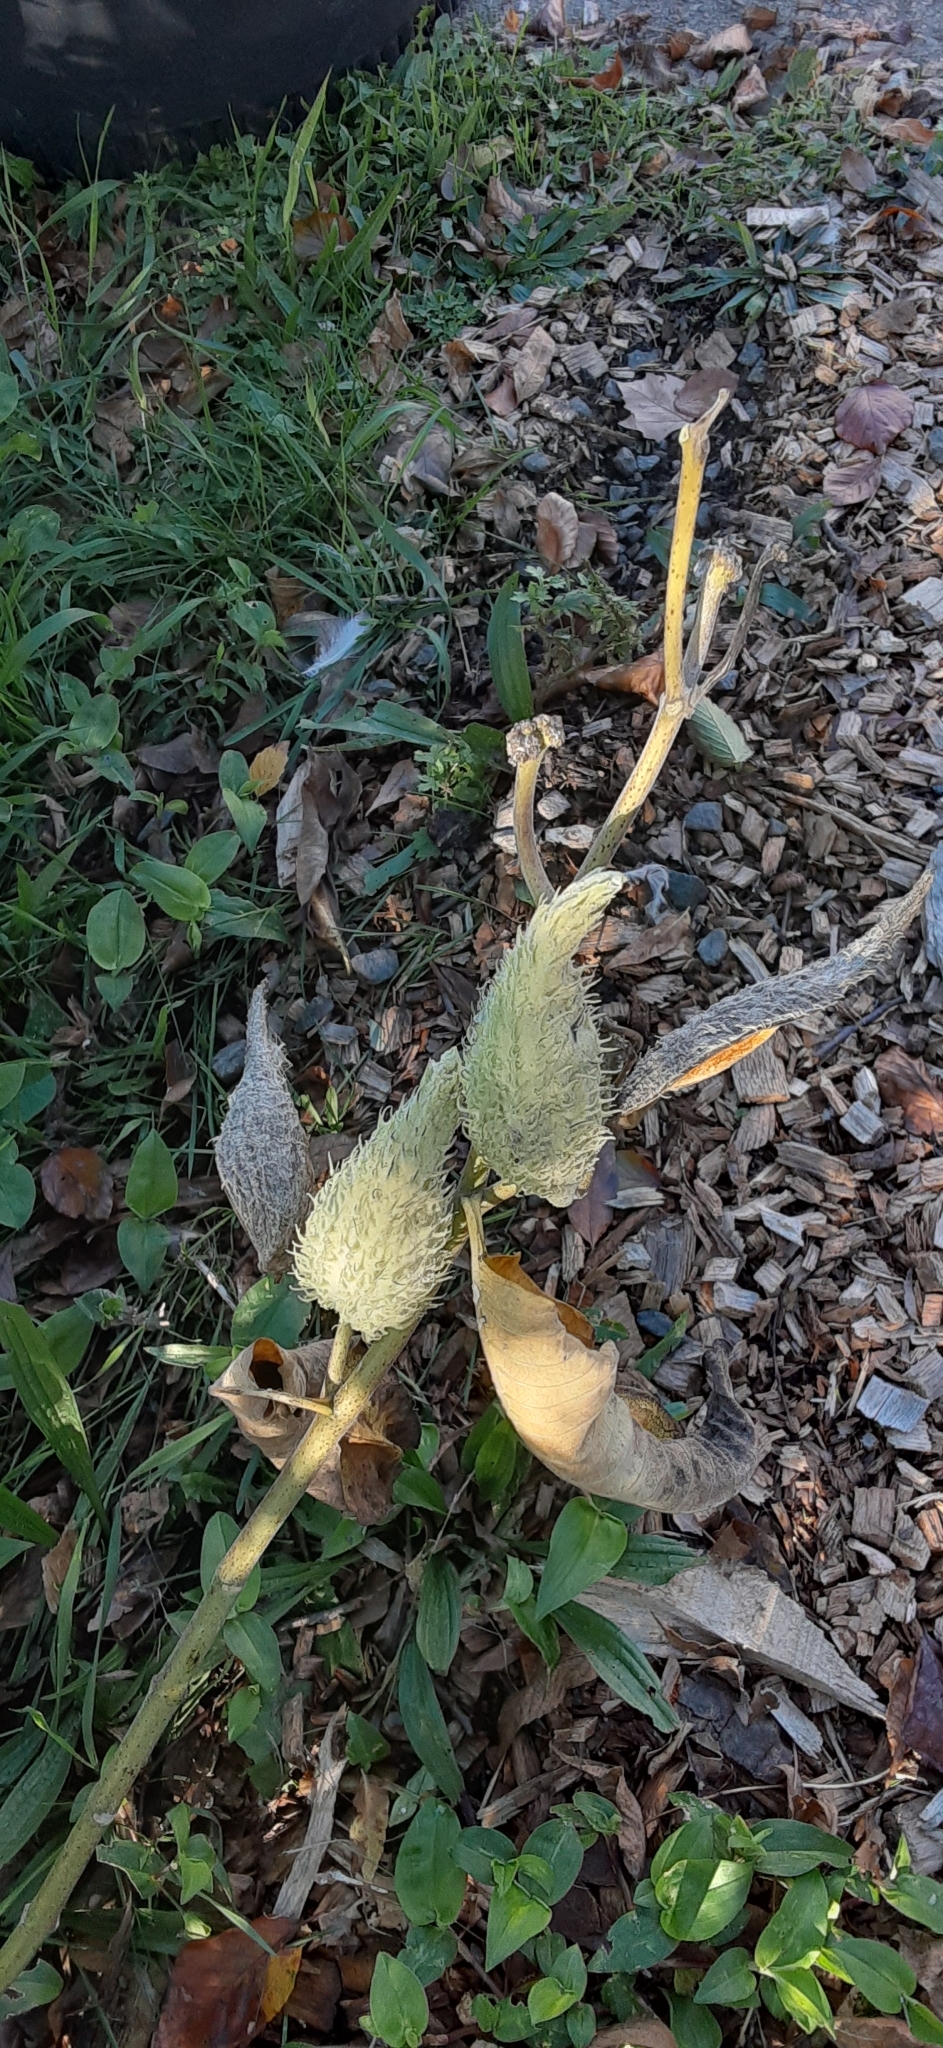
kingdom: Plantae
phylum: Tracheophyta
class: Magnoliopsida
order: Gentianales
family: Apocynaceae
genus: Asclepias
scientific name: Asclepias syriaca
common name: Common milkweed
